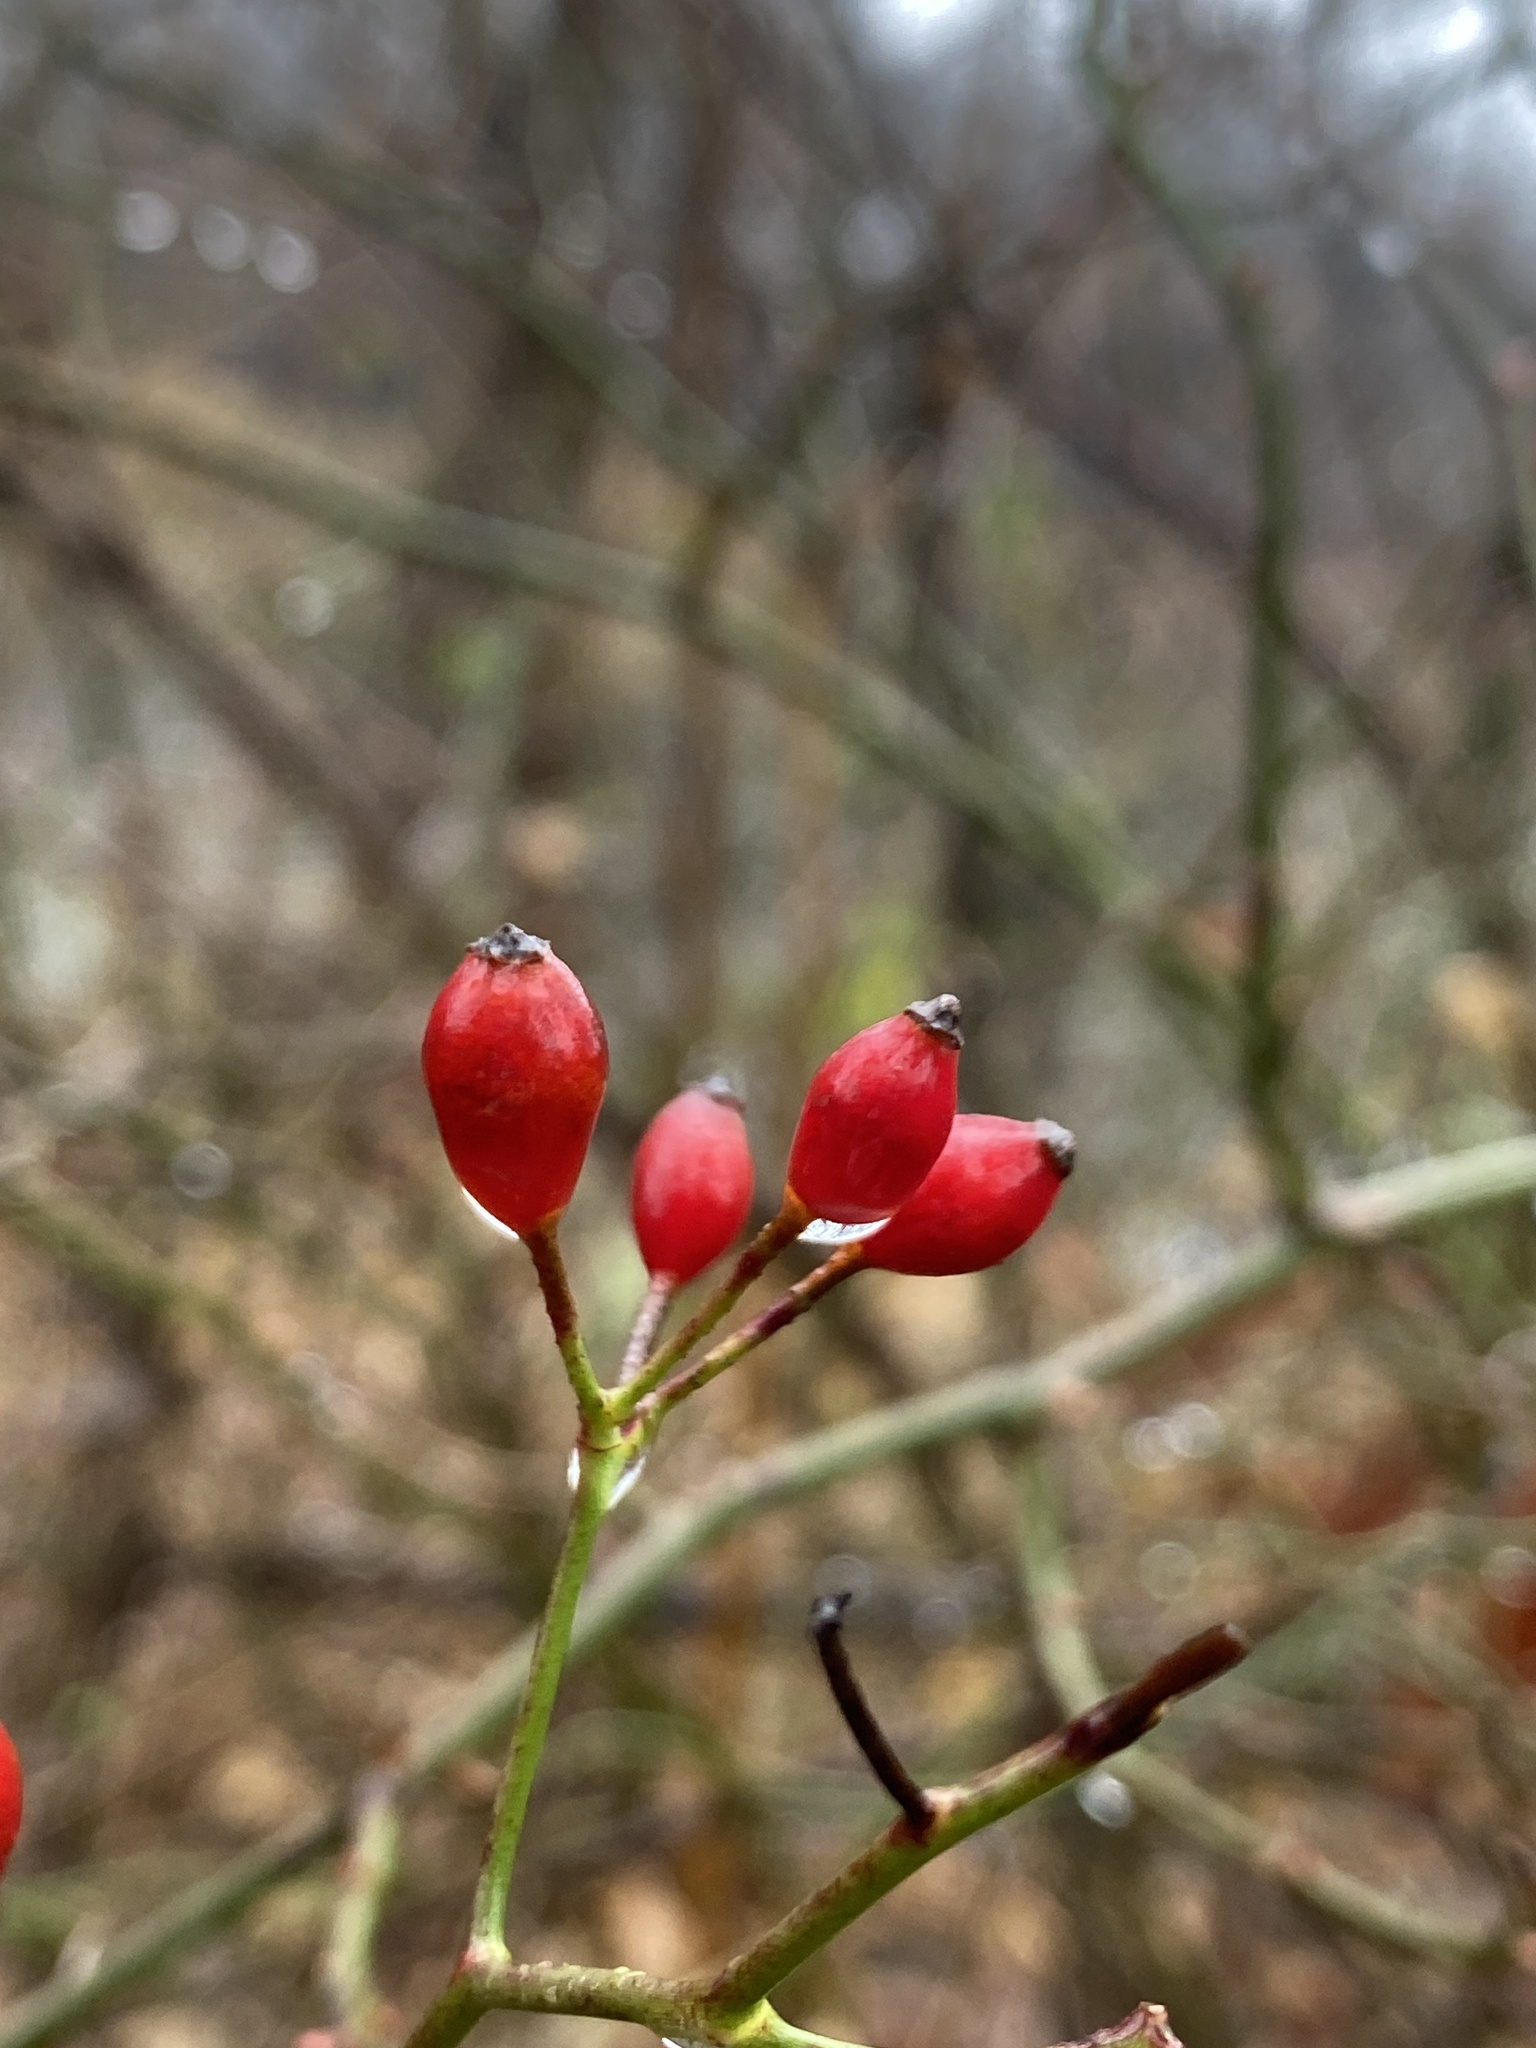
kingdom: Plantae
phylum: Tracheophyta
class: Magnoliopsida
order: Rosales
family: Rosaceae
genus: Rosa
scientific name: Rosa multiflora
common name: Multiflora rose
